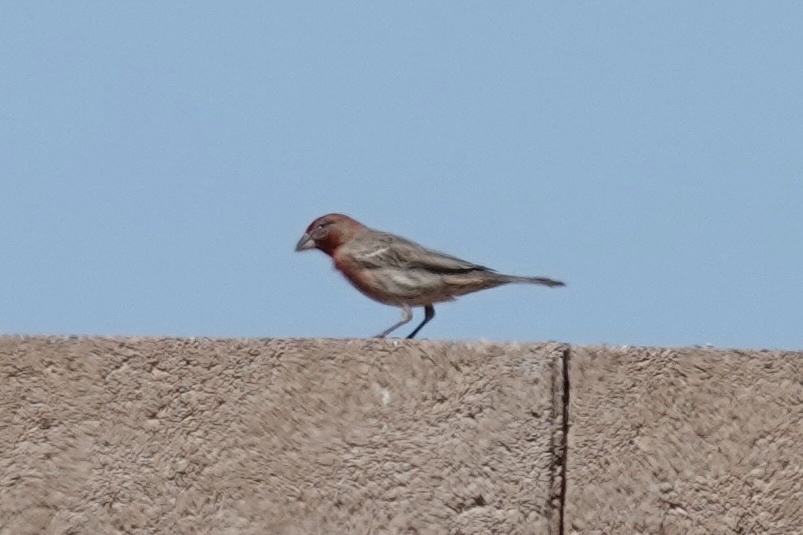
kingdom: Animalia
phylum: Chordata
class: Aves
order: Passeriformes
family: Fringillidae
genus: Haemorhous
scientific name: Haemorhous mexicanus
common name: House finch
